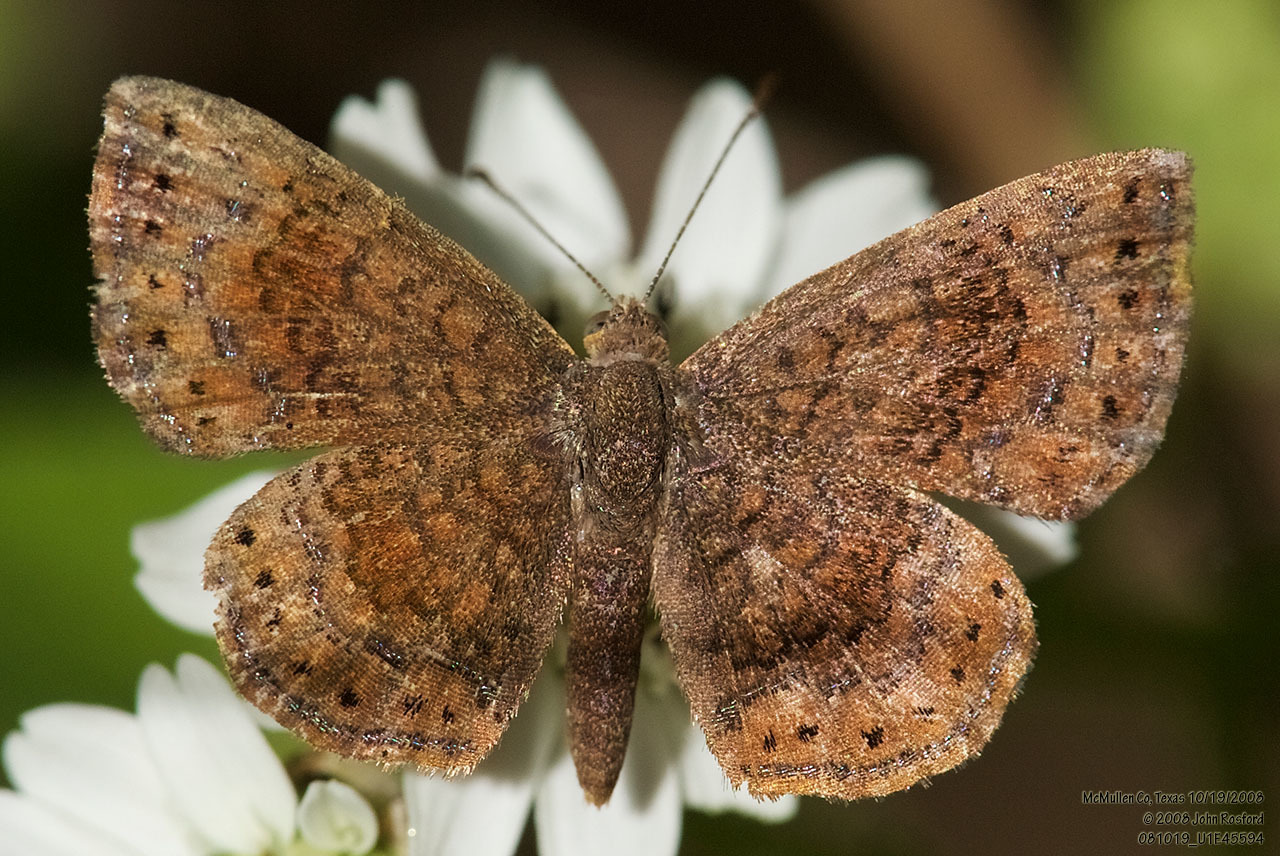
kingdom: Animalia
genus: Calephelis
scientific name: Calephelis perditalis
